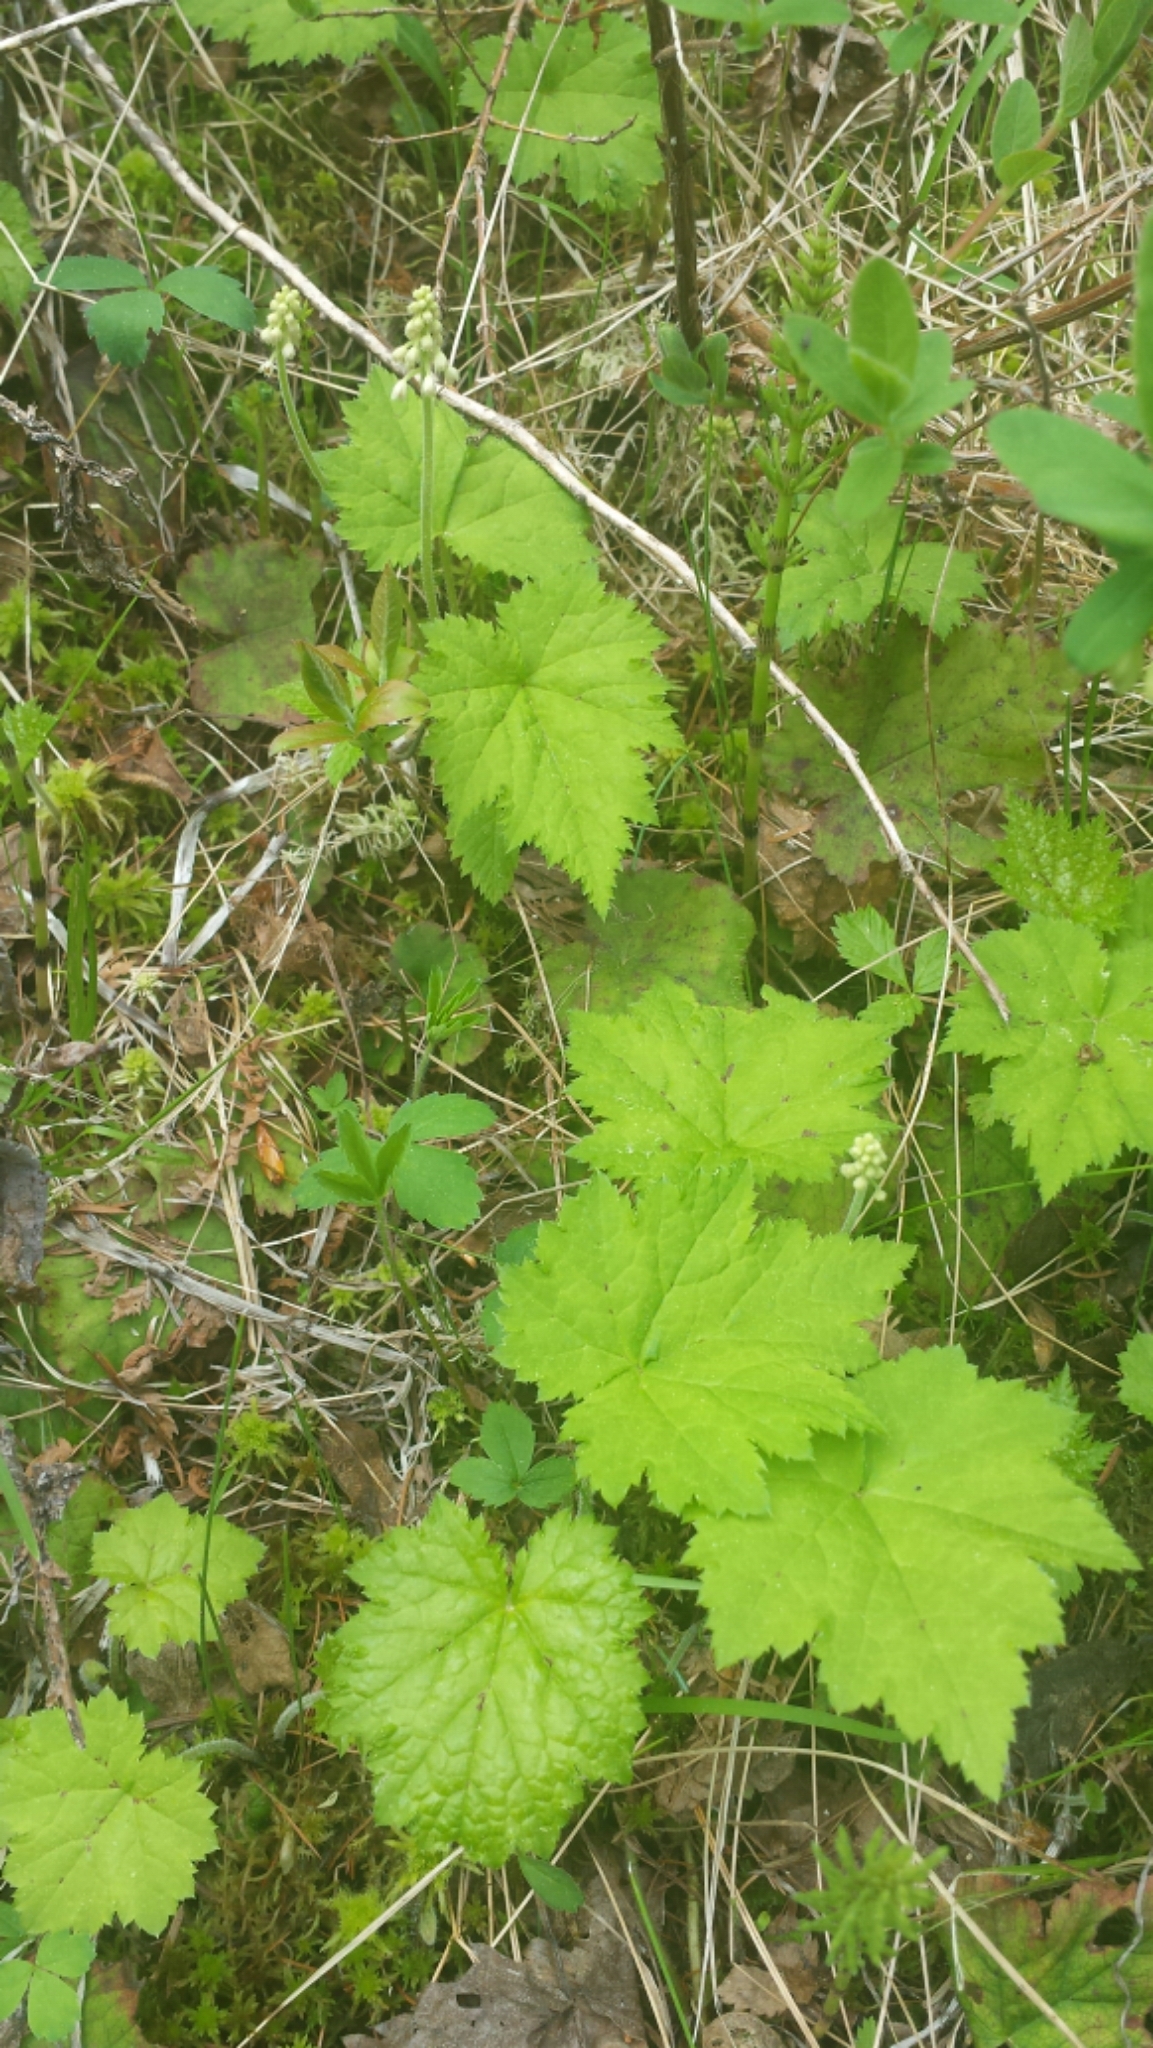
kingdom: Plantae
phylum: Tracheophyta
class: Magnoliopsida
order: Saxifragales
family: Saxifragaceae
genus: Tiarella
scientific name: Tiarella stolonifera
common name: Stoloniferous foamflower
